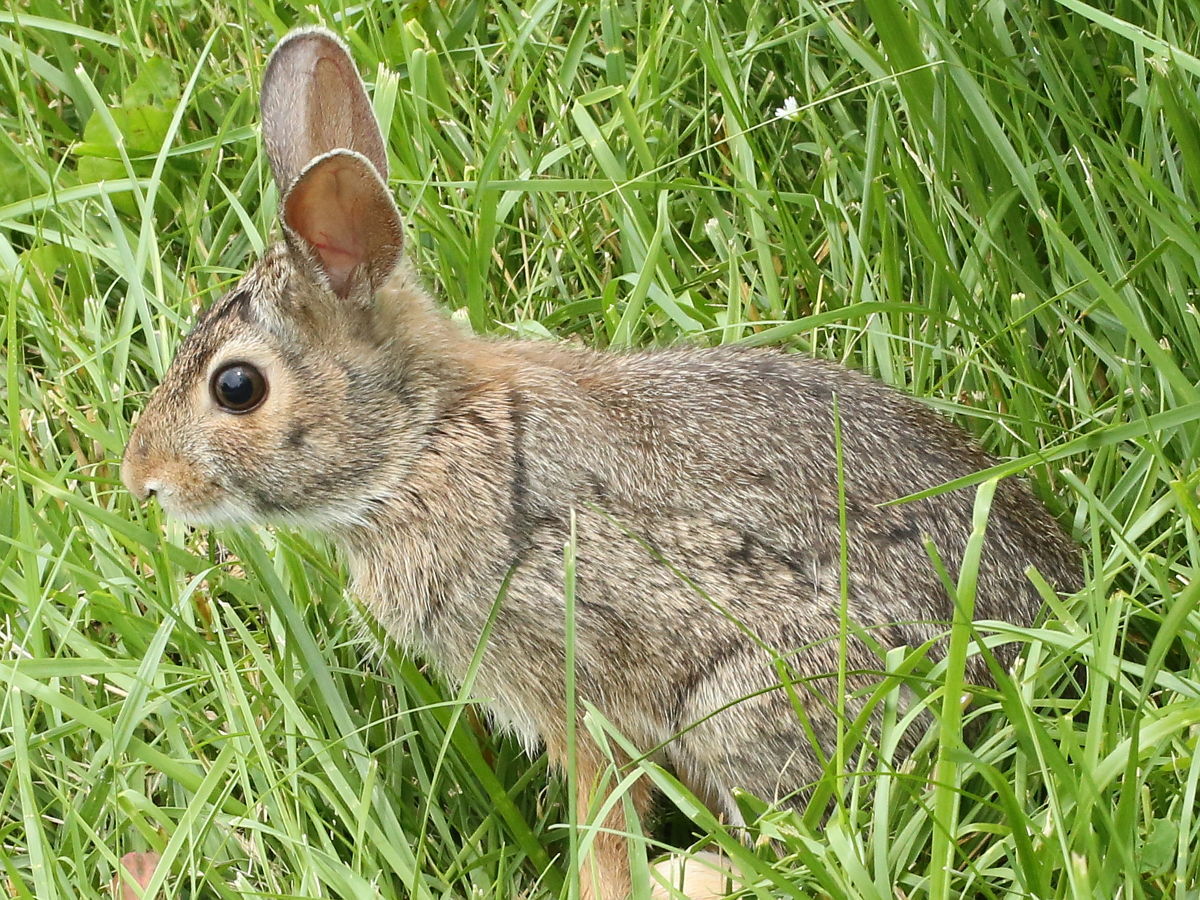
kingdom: Animalia
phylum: Chordata
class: Mammalia
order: Lagomorpha
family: Leporidae
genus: Sylvilagus
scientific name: Sylvilagus floridanus
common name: Eastern cottontail
